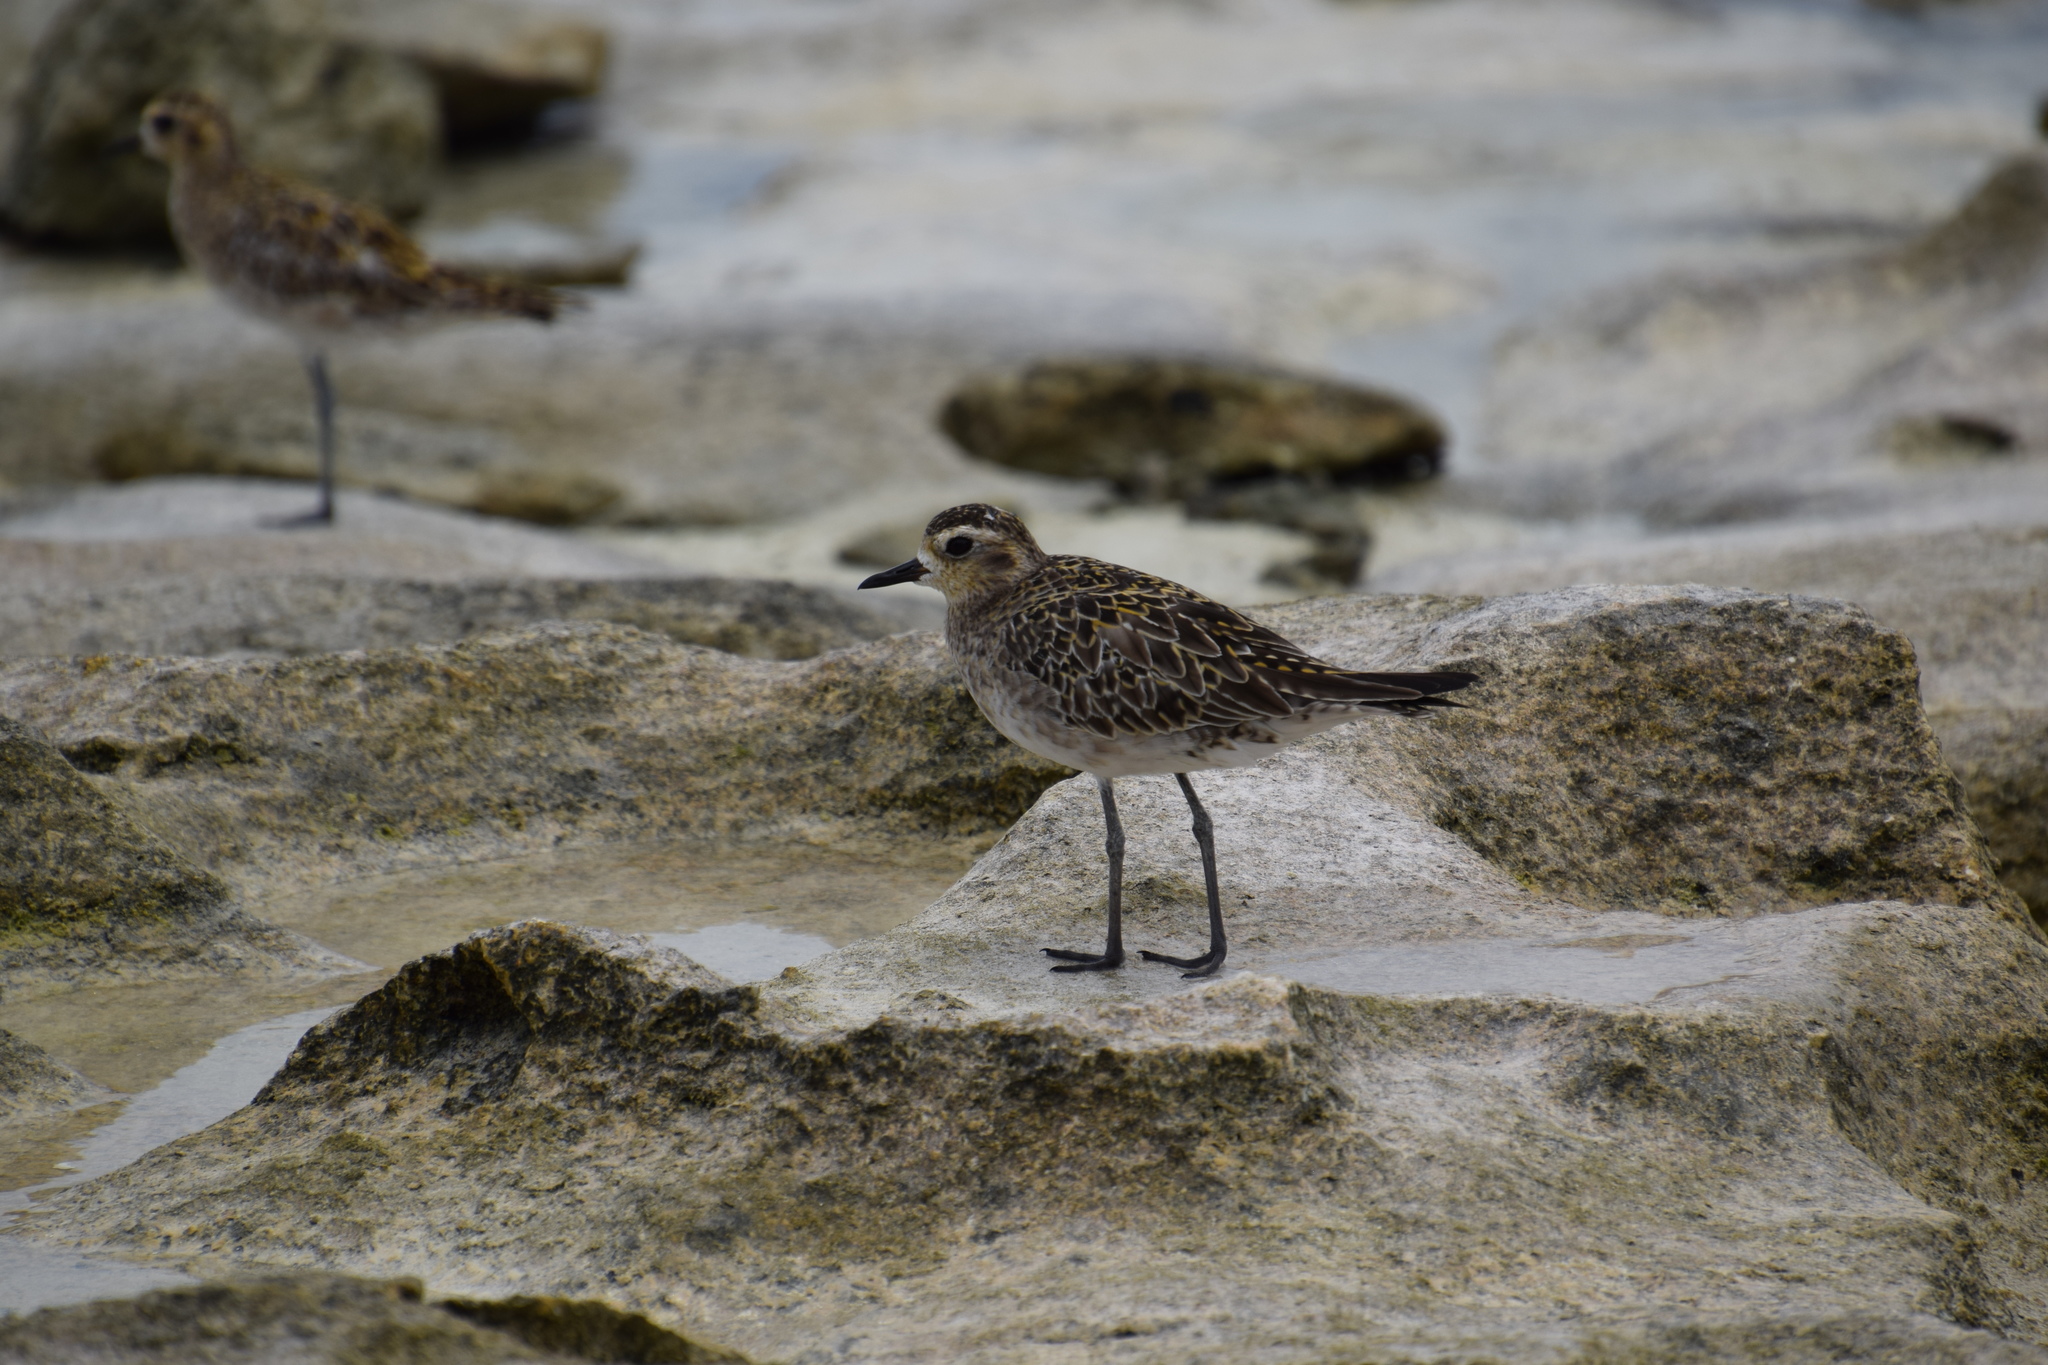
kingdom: Animalia
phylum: Chordata
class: Aves
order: Charadriiformes
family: Charadriidae
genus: Pluvialis
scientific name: Pluvialis fulva
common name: Pacific golden plover
